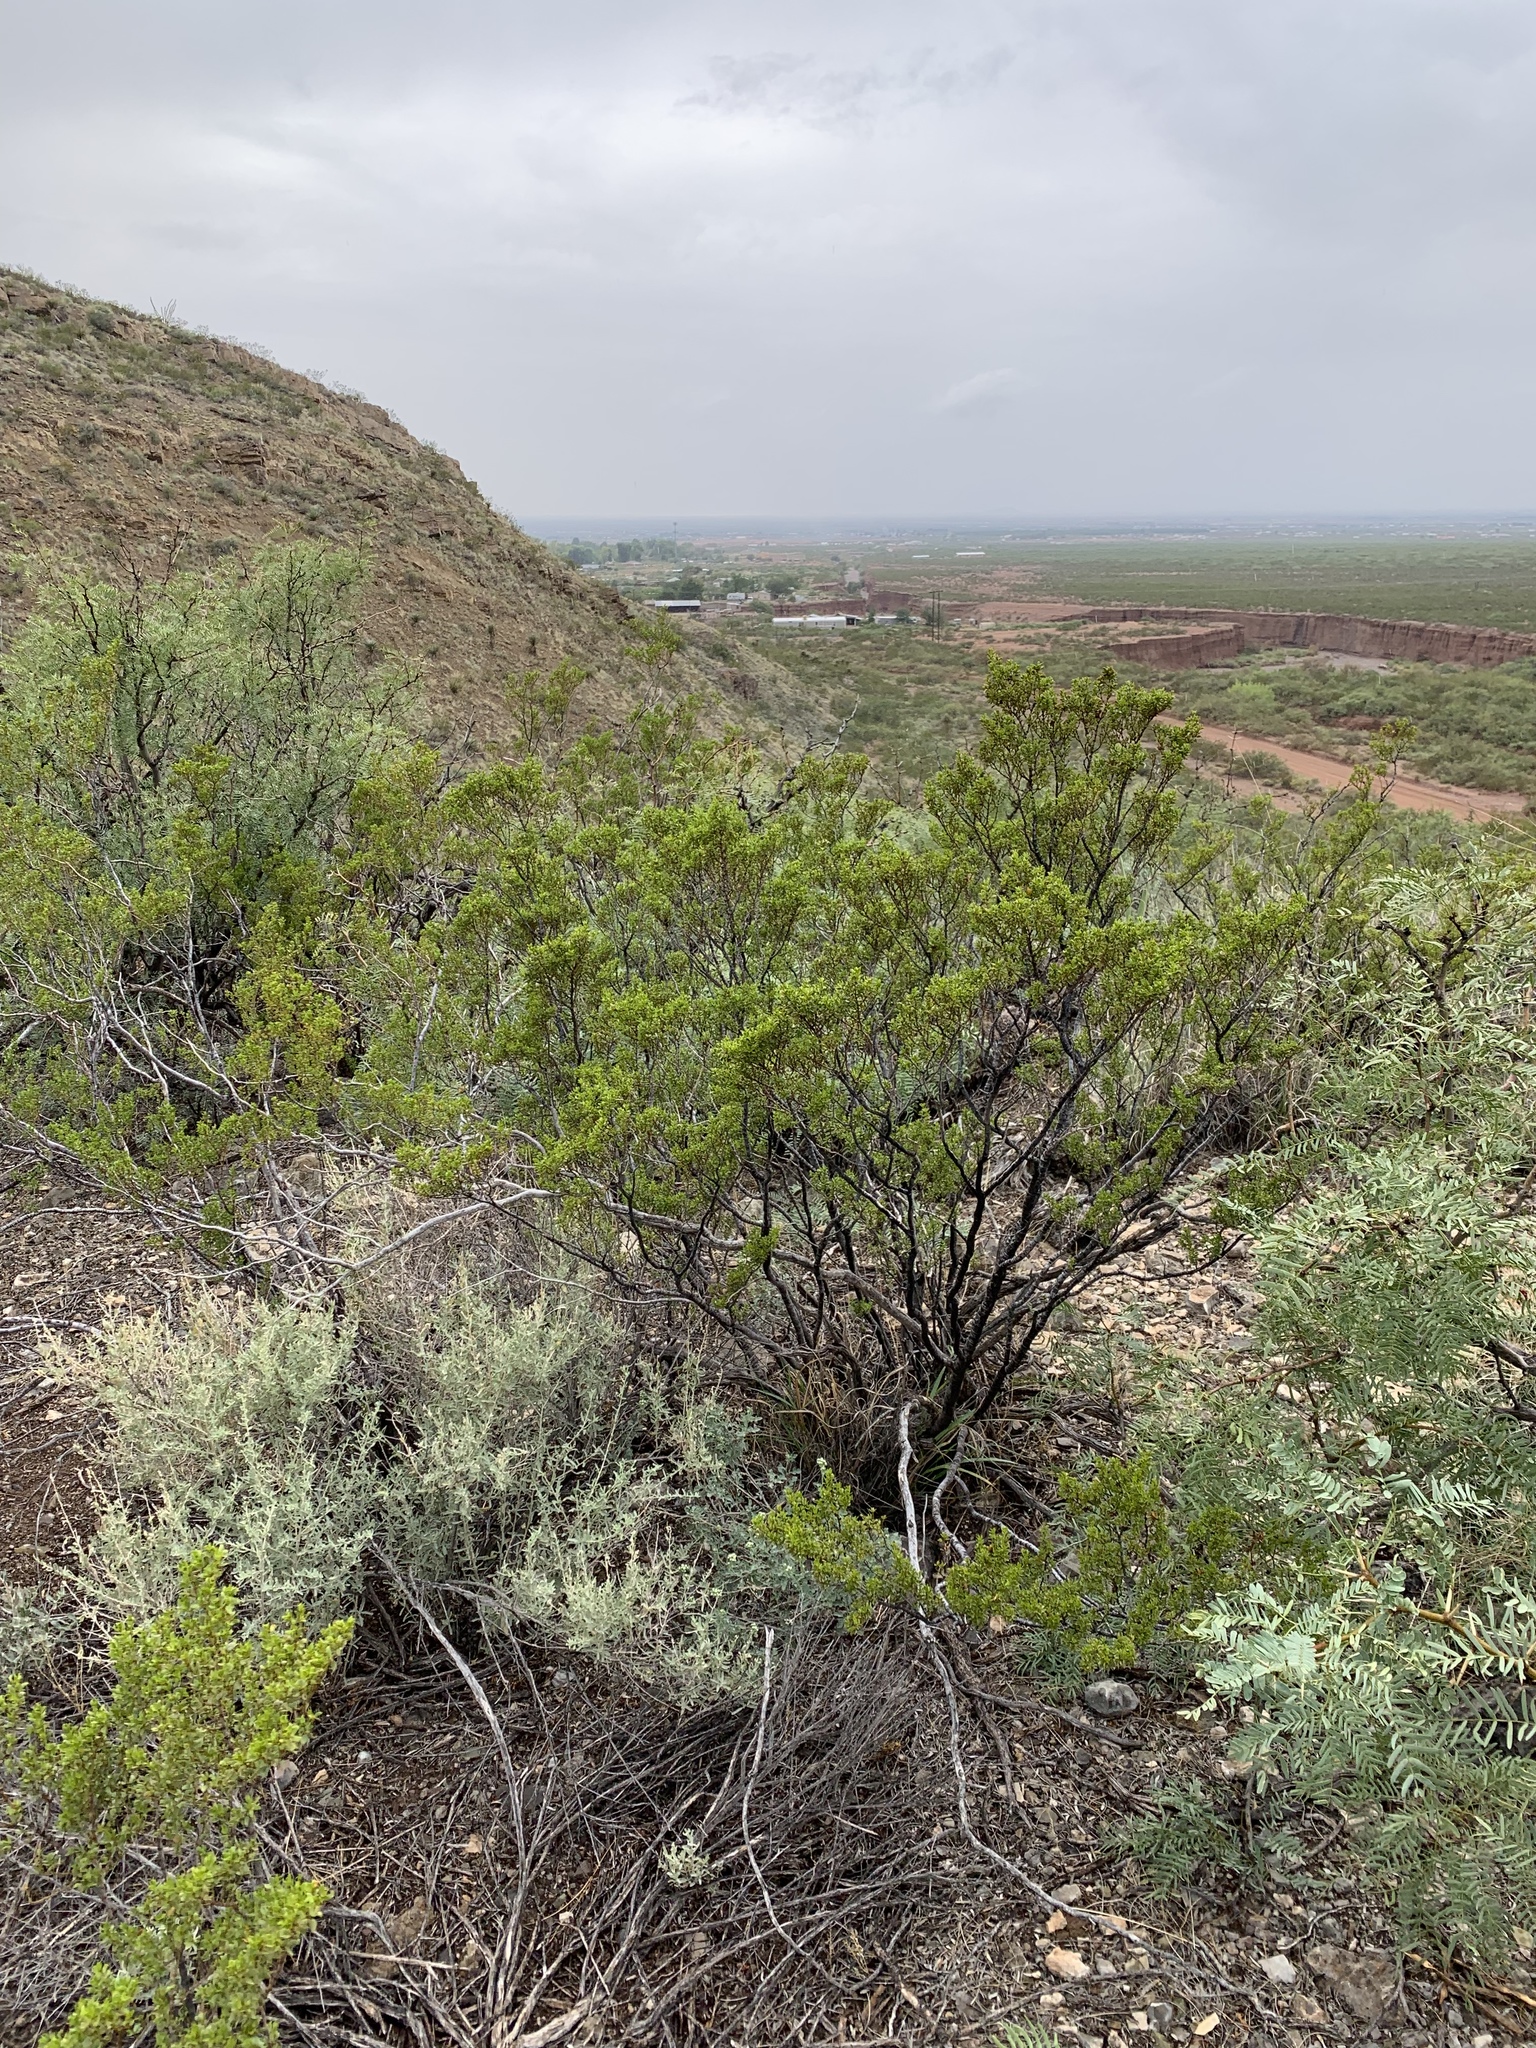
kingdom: Plantae
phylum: Tracheophyta
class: Magnoliopsida
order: Zygophyllales
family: Zygophyllaceae
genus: Larrea
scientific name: Larrea tridentata
